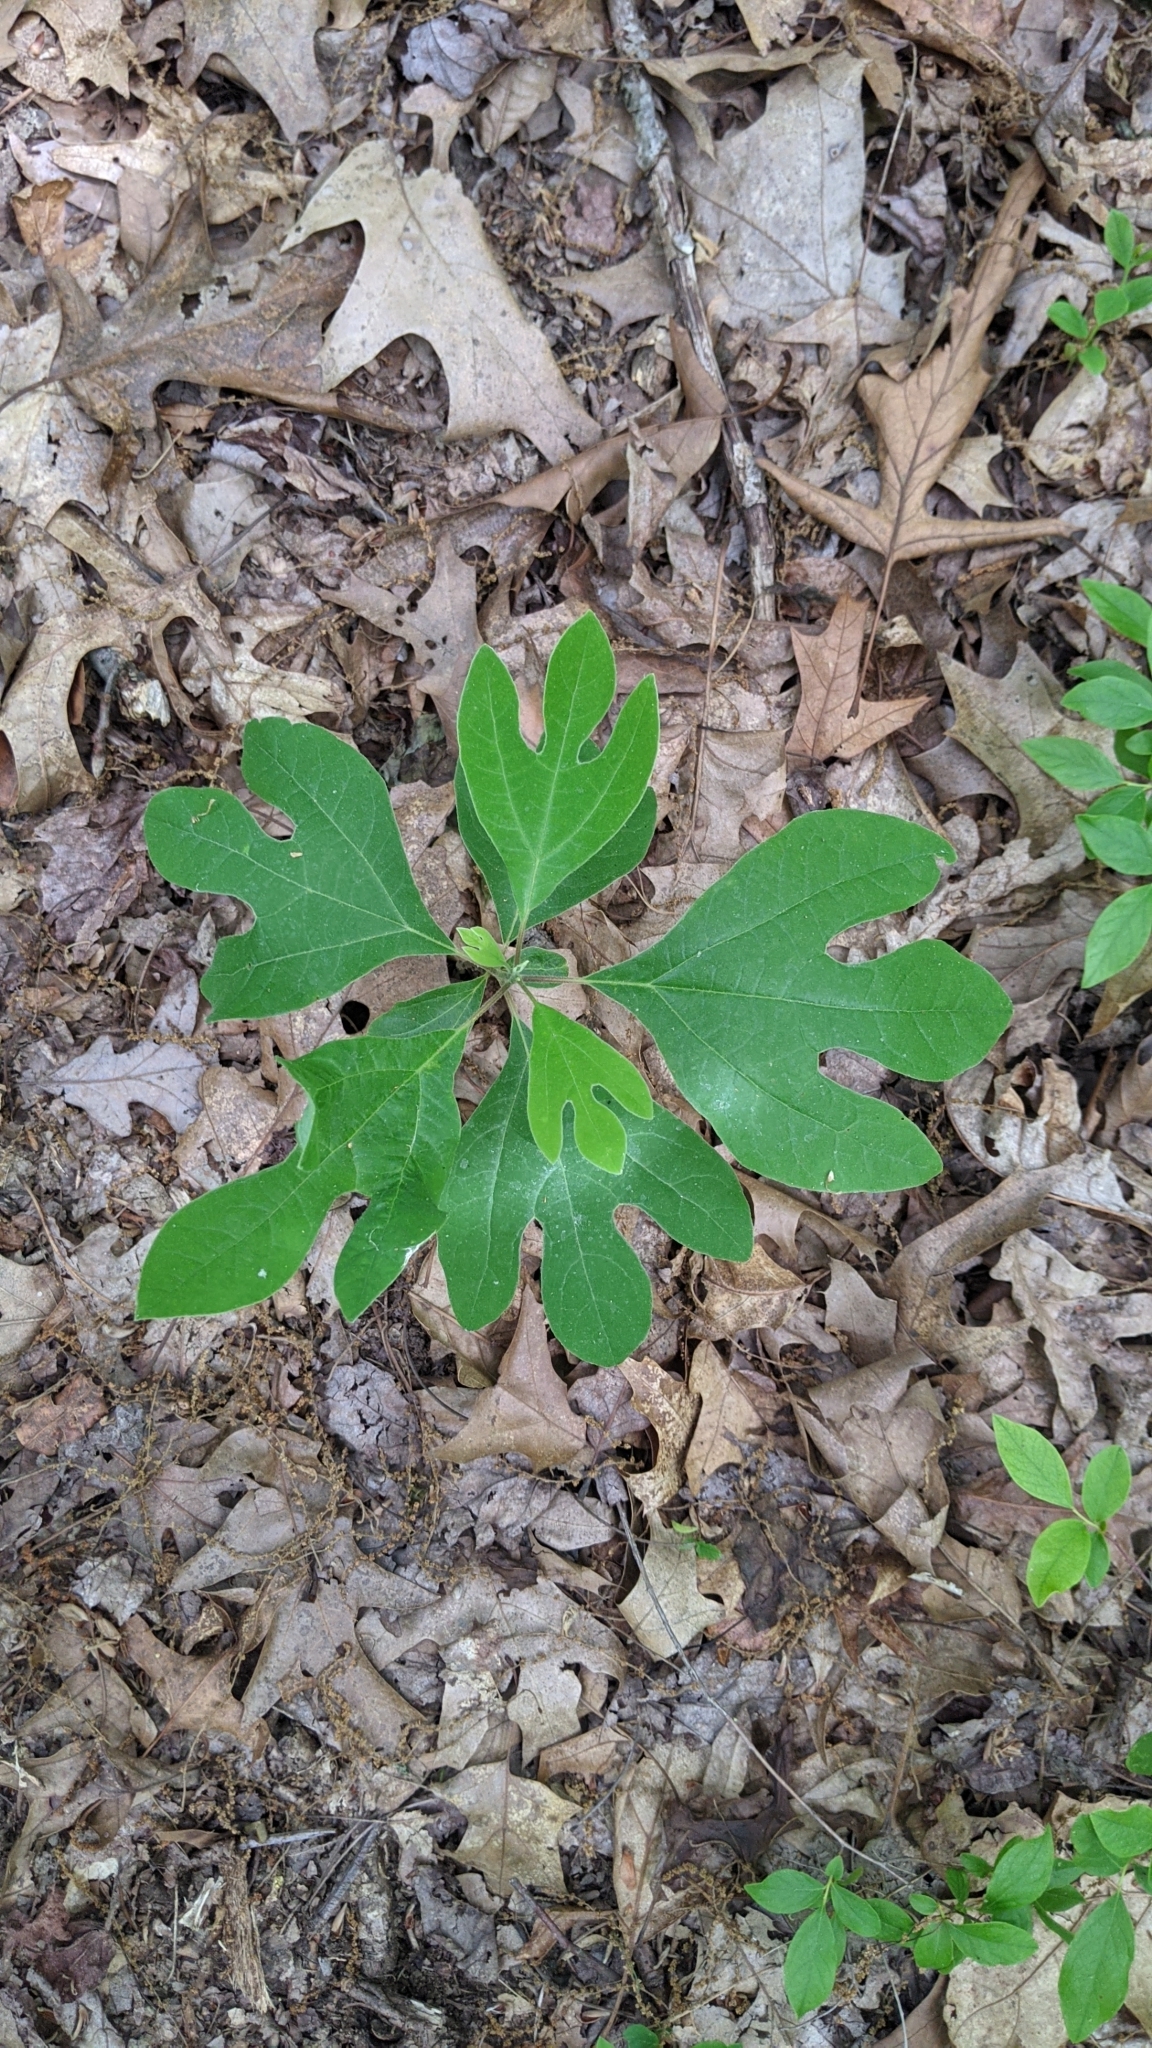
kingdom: Plantae
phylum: Tracheophyta
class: Magnoliopsida
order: Laurales
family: Lauraceae
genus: Sassafras
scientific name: Sassafras albidum
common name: Sassafras
